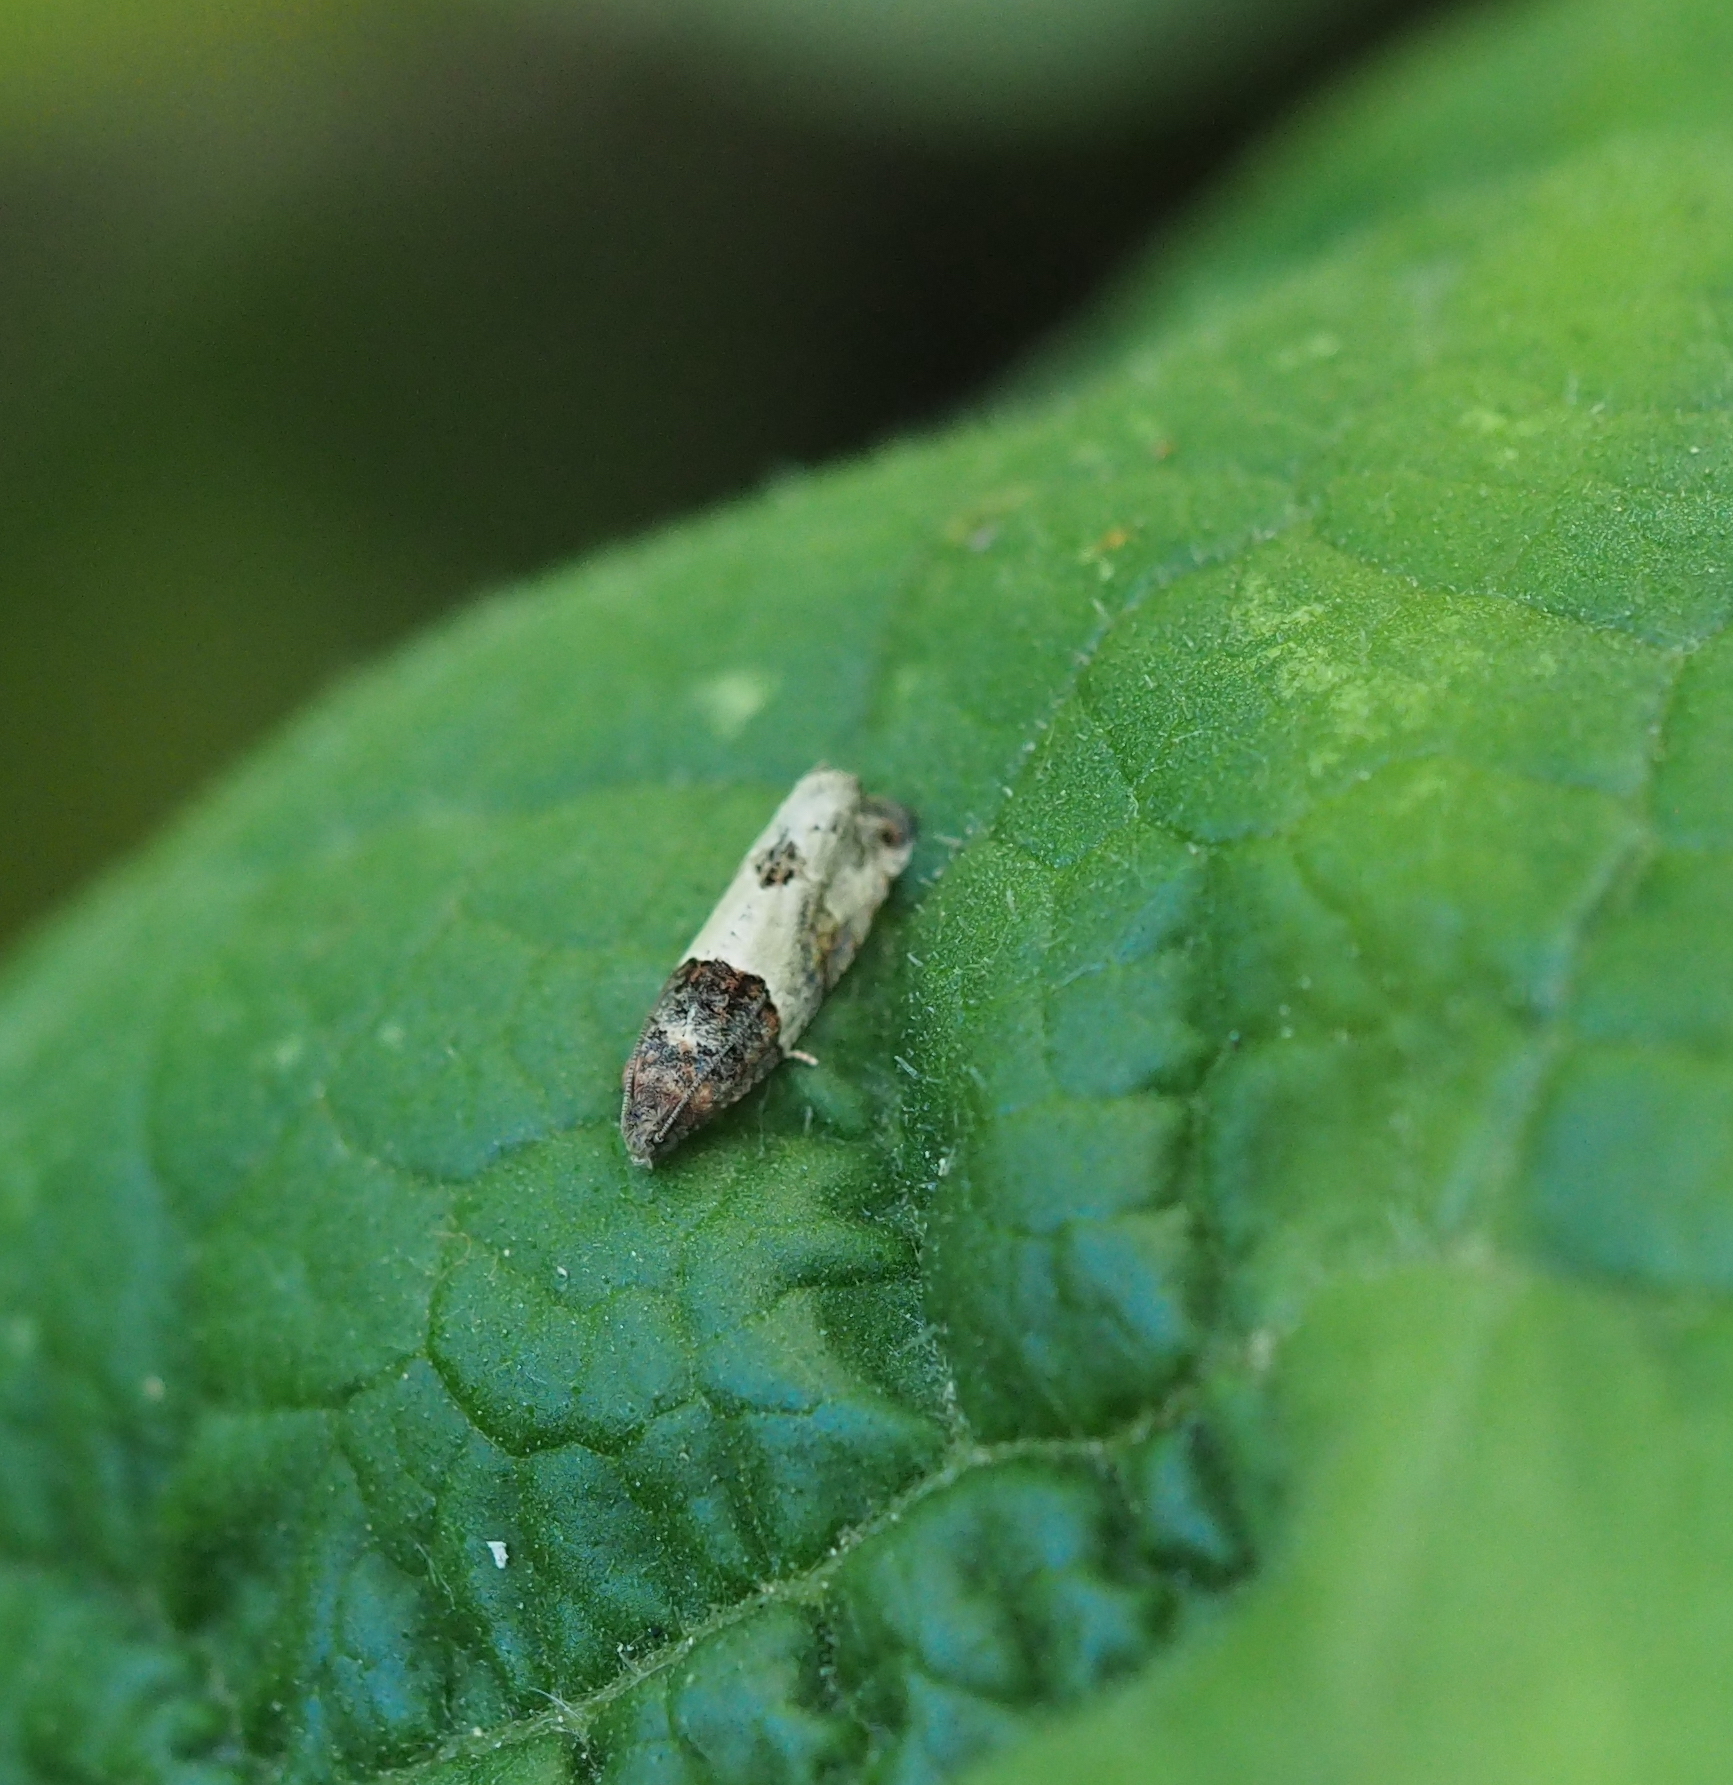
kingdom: Animalia
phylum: Arthropoda
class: Insecta
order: Lepidoptera
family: Tortricidae
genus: Gypsonoma
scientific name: Gypsonoma aceriana
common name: Poplar twig borer
